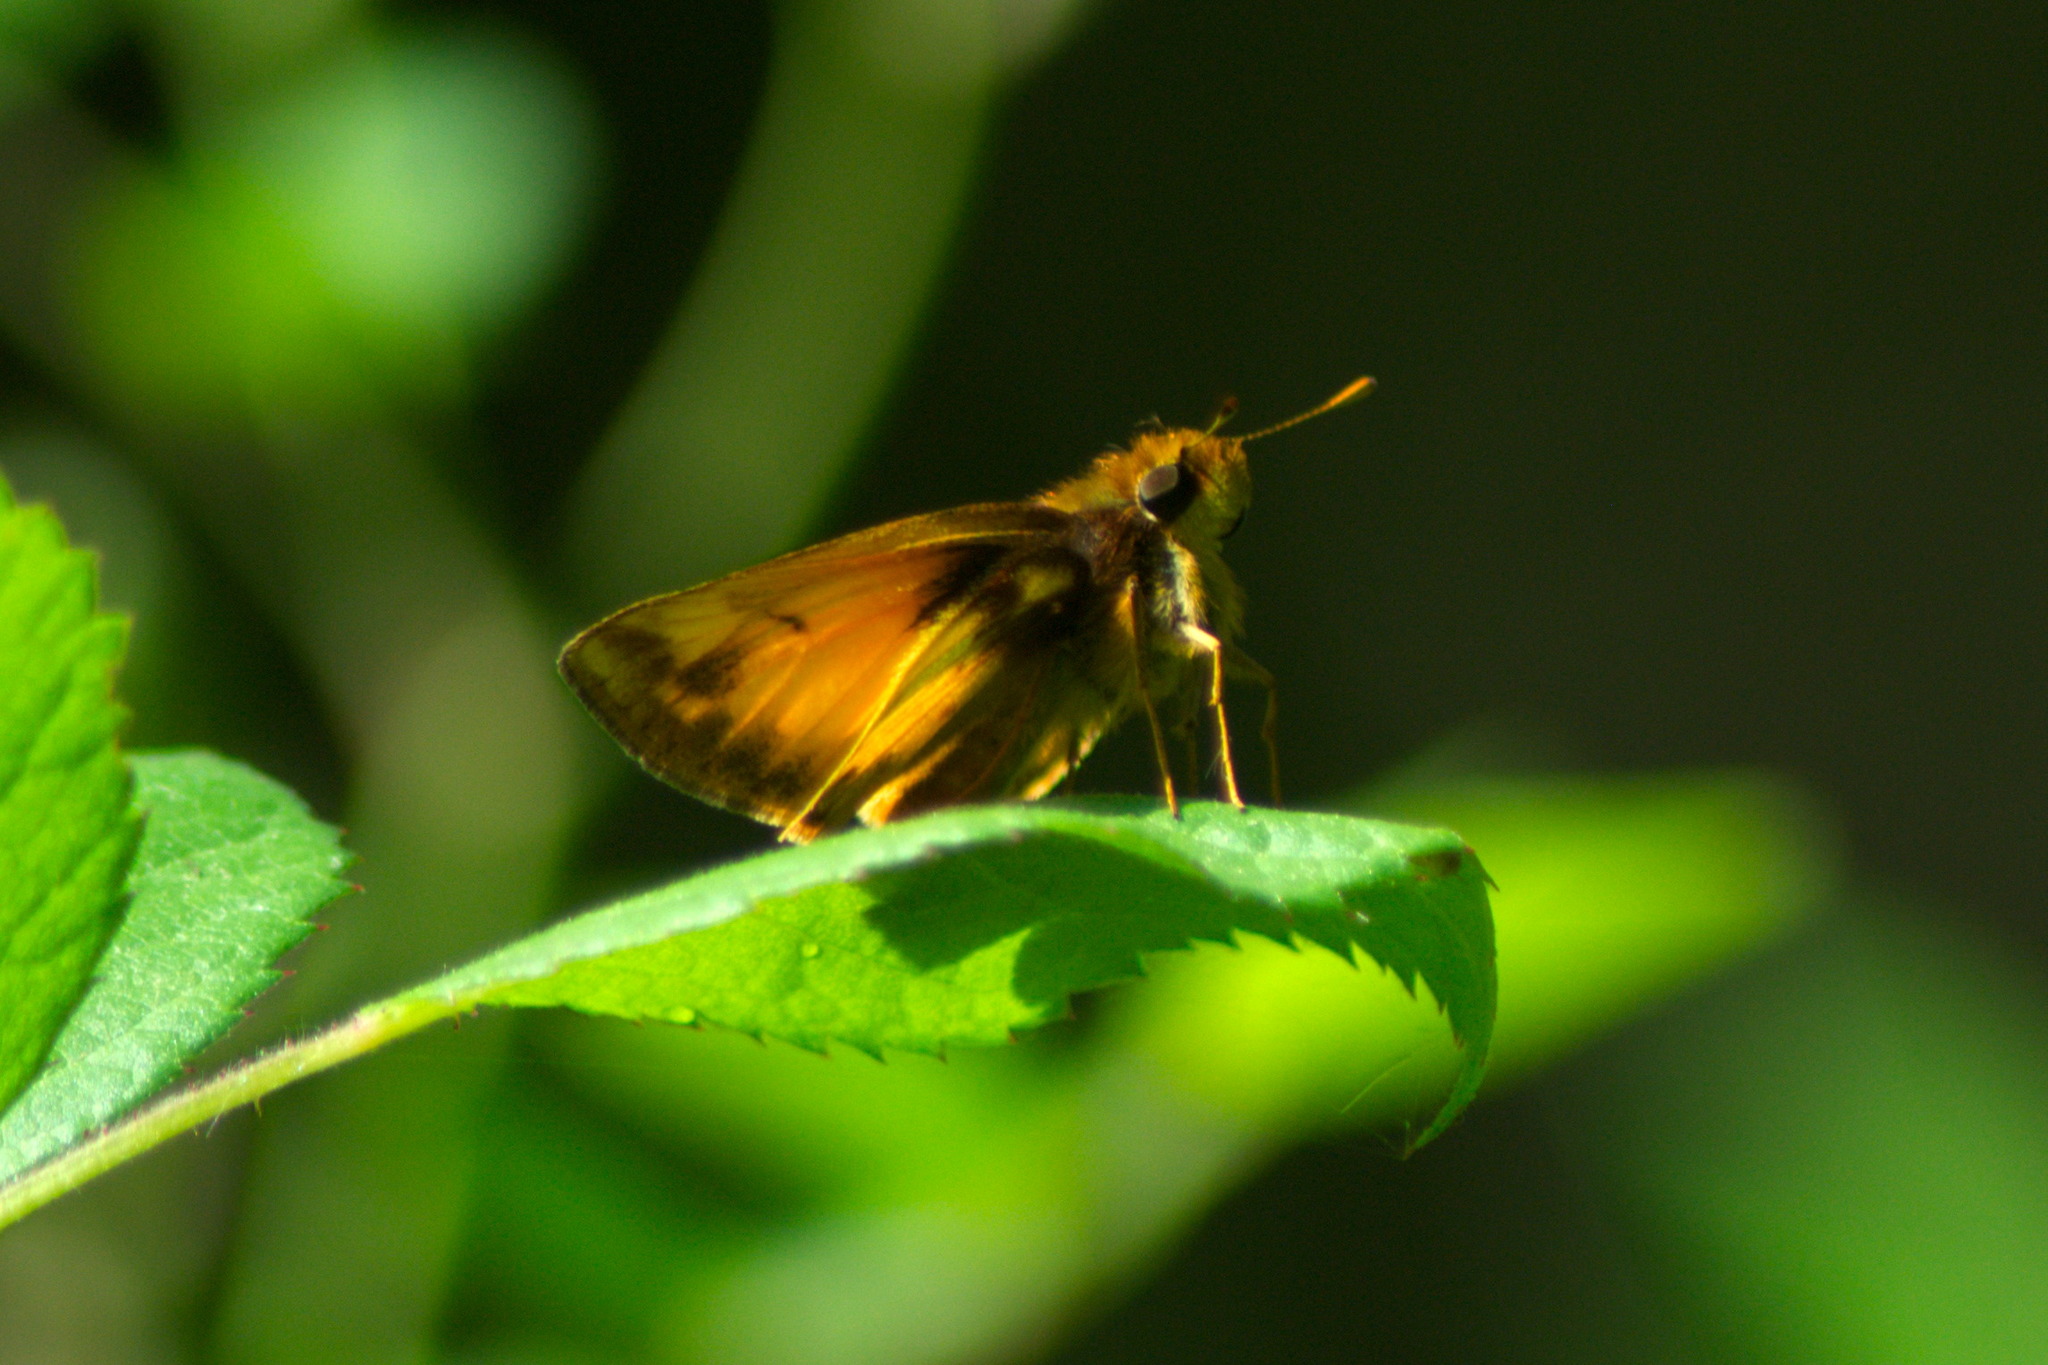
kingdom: Animalia
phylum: Arthropoda
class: Insecta
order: Lepidoptera
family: Hesperiidae
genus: Lon
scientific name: Lon zabulon
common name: Zabulon skipper
